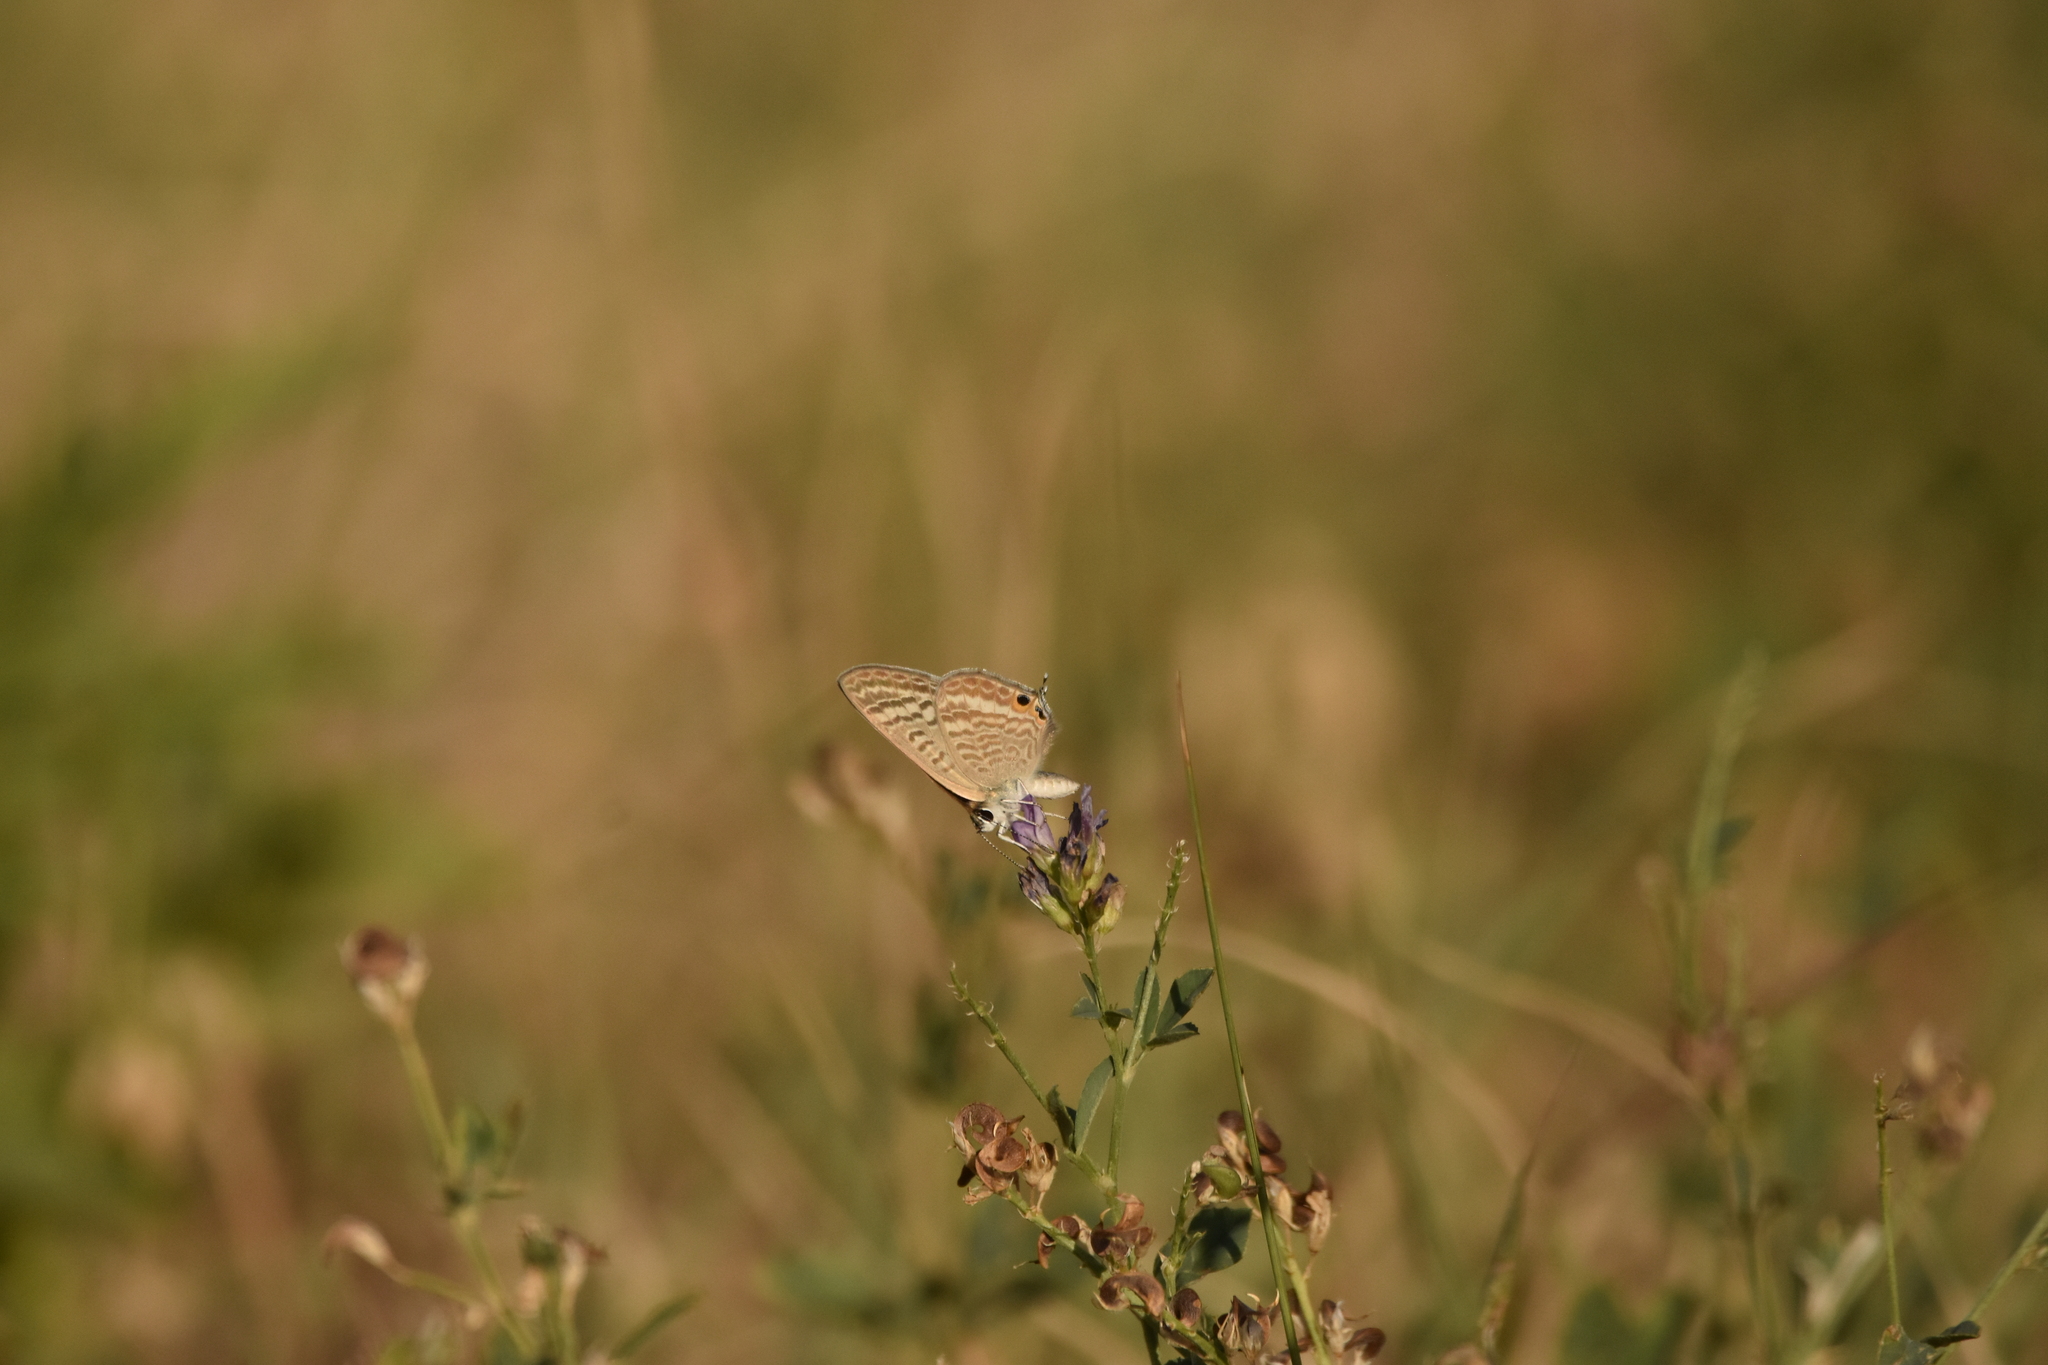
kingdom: Animalia
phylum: Arthropoda
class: Insecta
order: Lepidoptera
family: Lycaenidae
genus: Lampides
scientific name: Lampides boeticus
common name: Long-tailed blue
